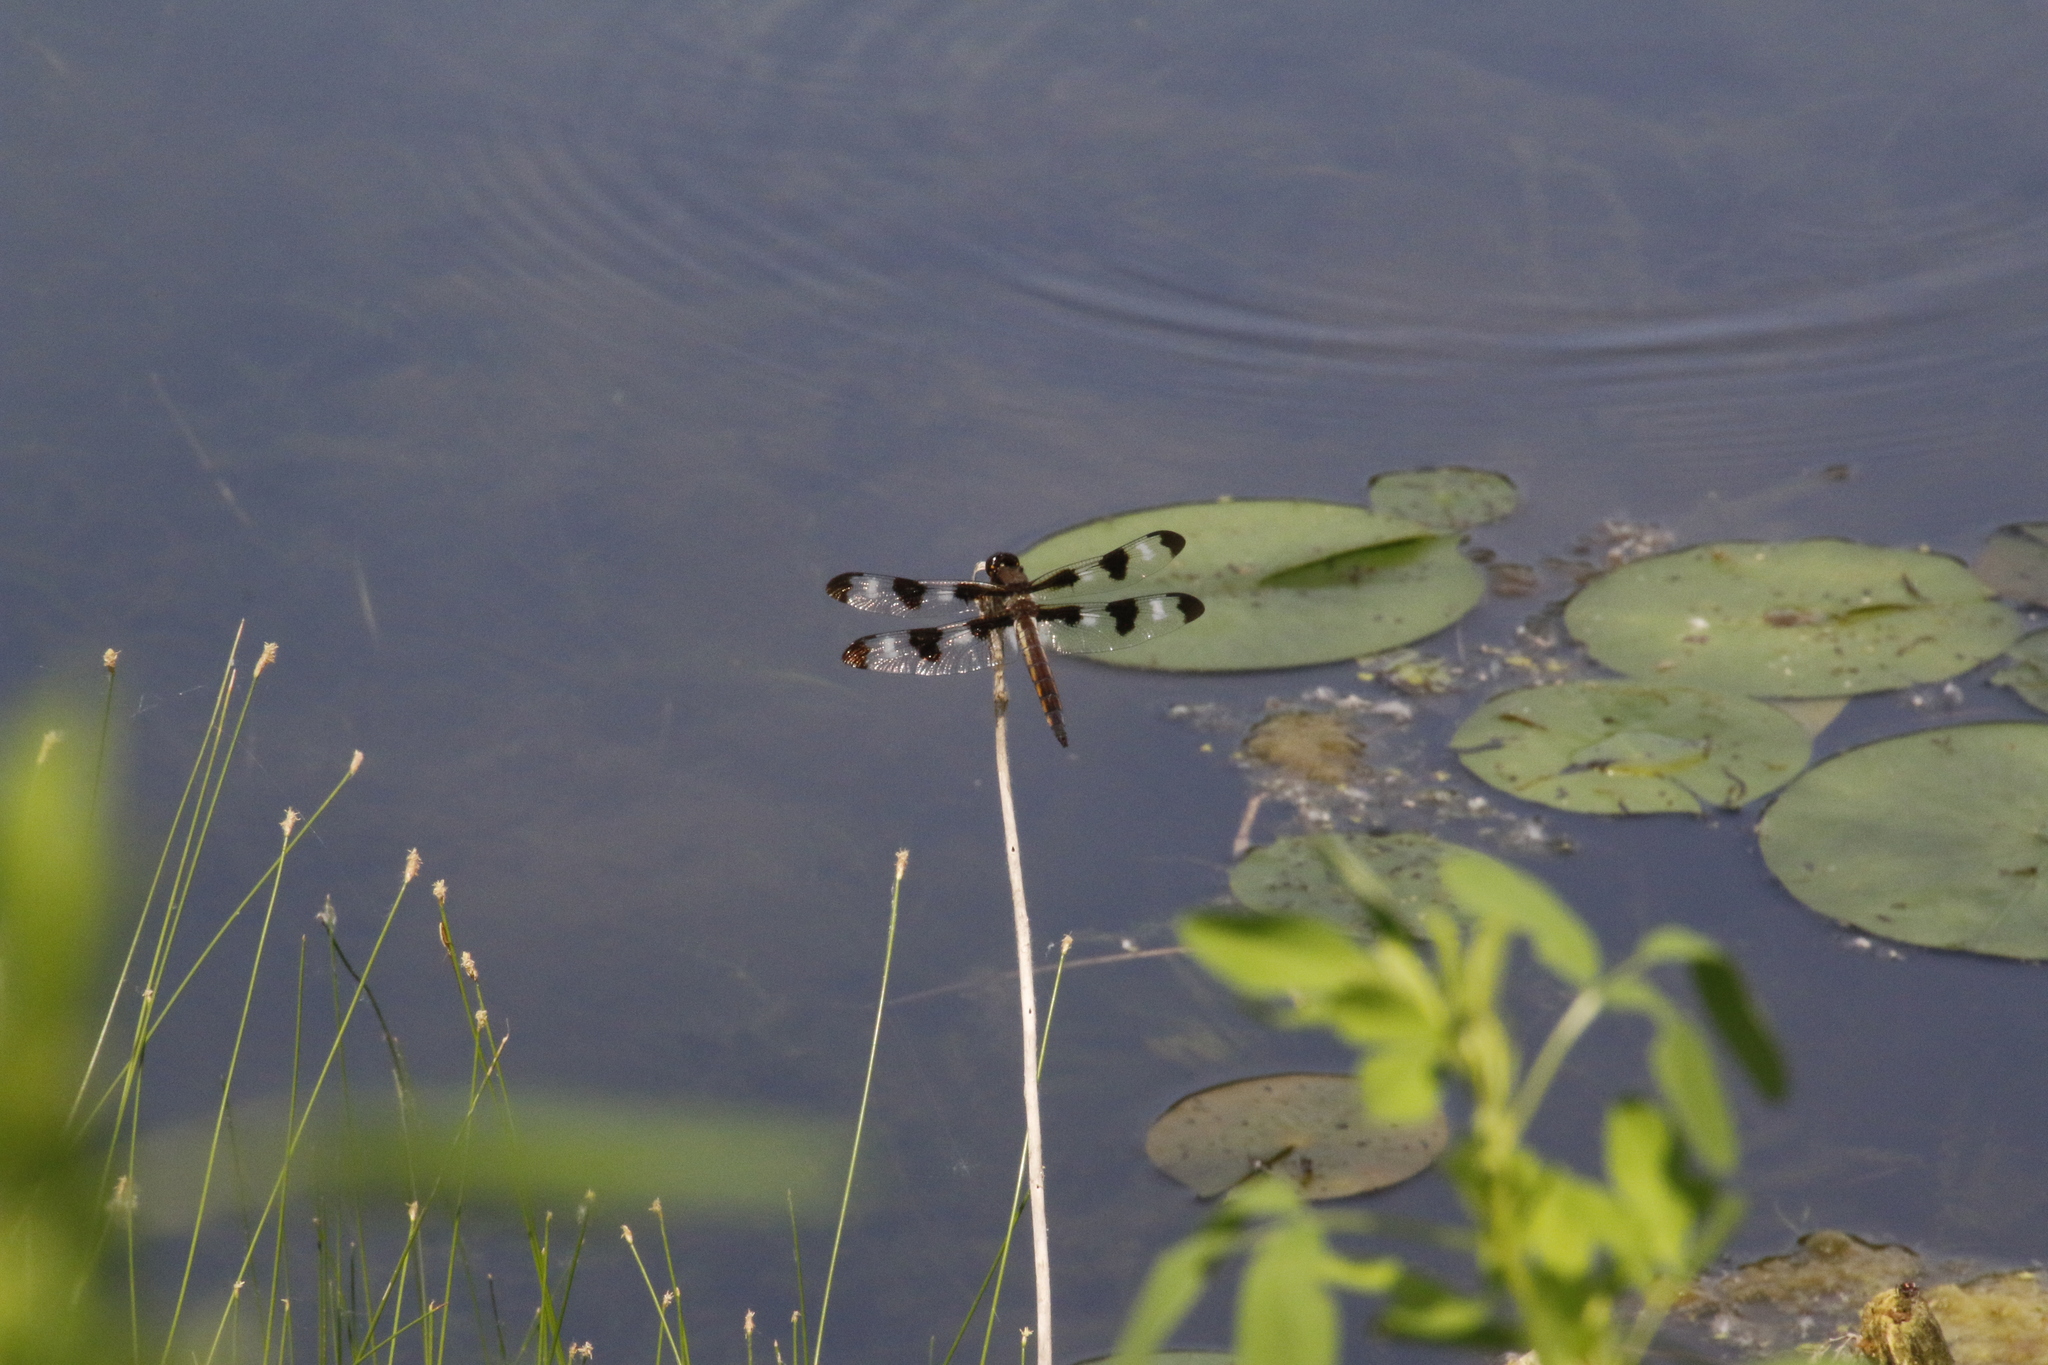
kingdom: Animalia
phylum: Arthropoda
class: Insecta
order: Odonata
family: Libellulidae
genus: Libellula
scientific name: Libellula pulchella
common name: Twelve-spotted skimmer
